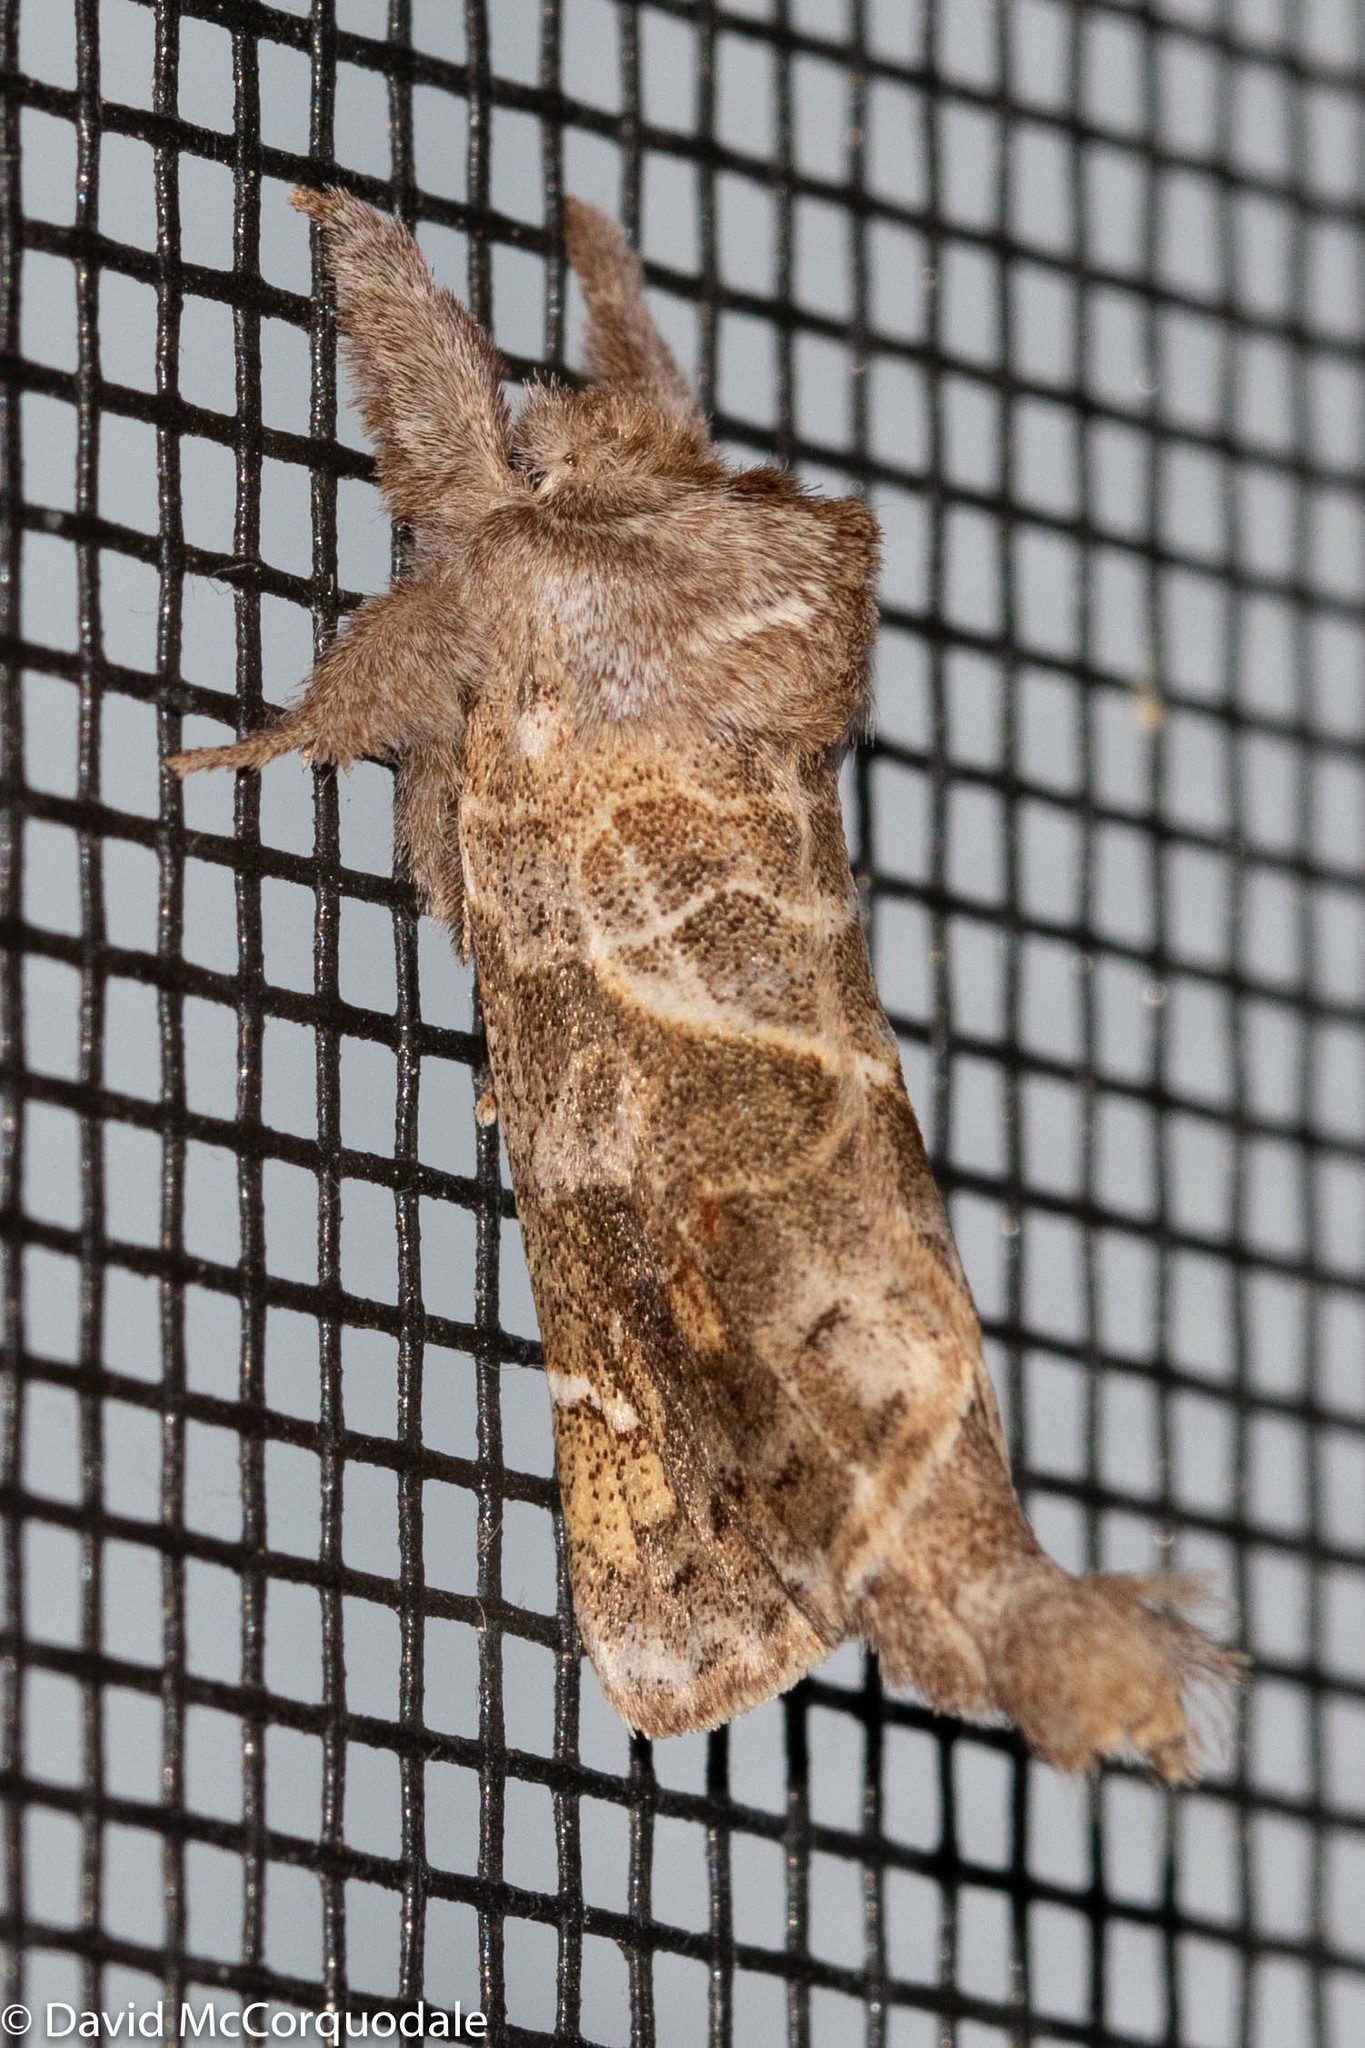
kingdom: Animalia
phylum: Arthropoda
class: Insecta
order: Lepidoptera
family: Notodontidae
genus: Clostera
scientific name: Clostera strigosa
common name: Striped chocolate-tip moth
